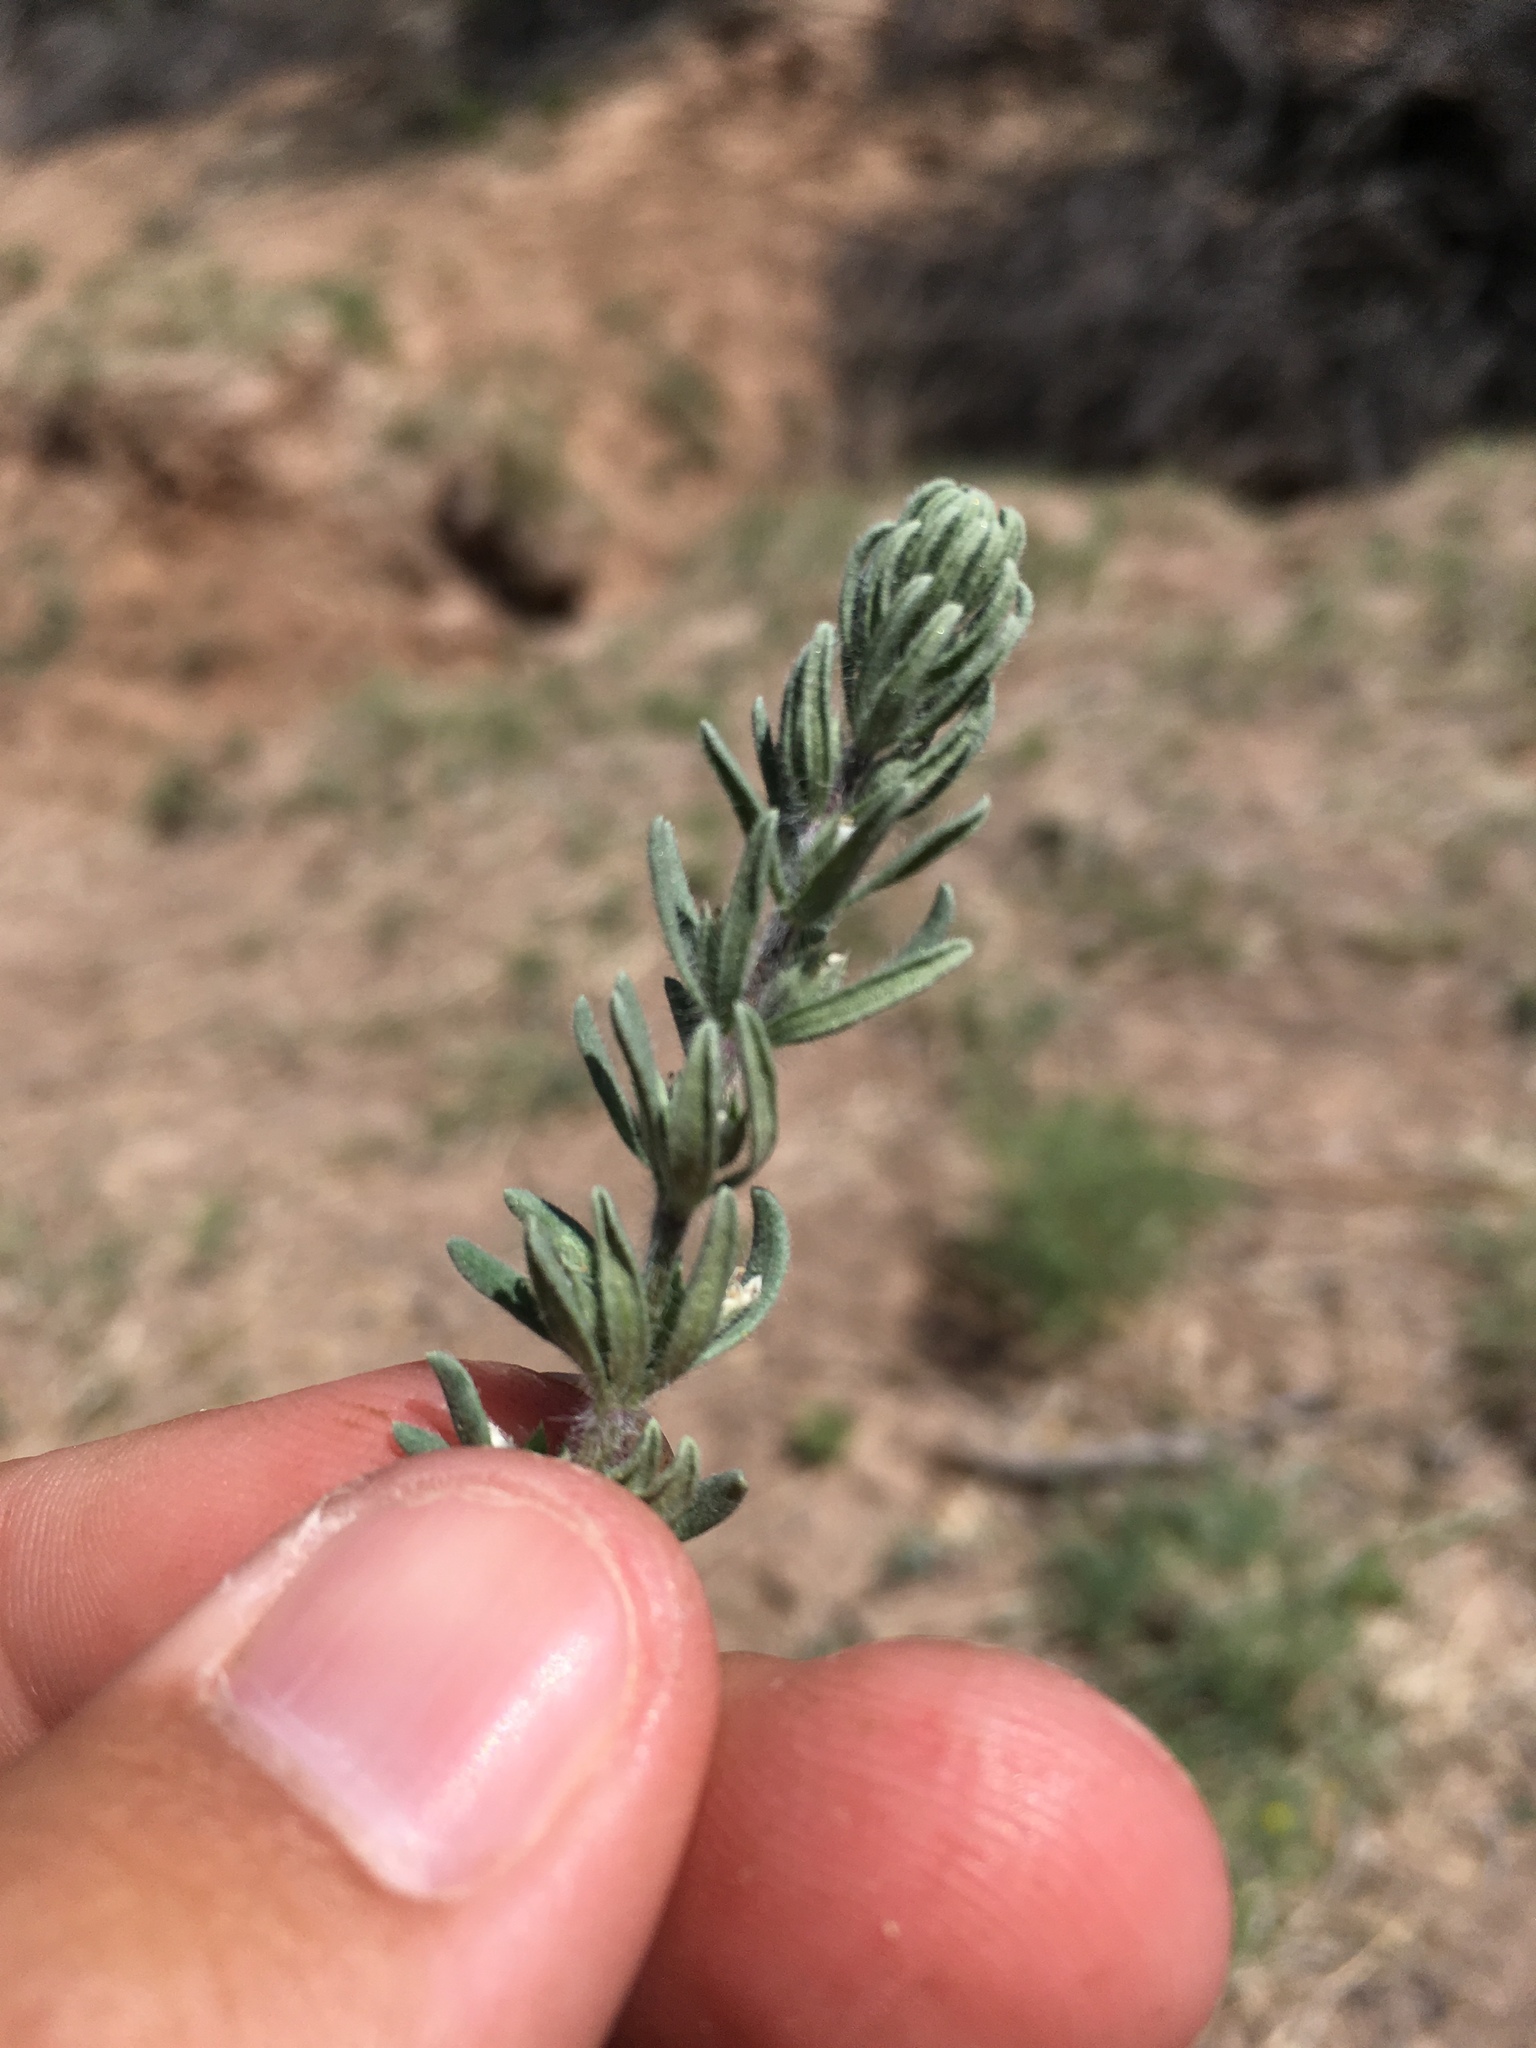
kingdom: Plantae
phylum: Tracheophyta
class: Magnoliopsida
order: Lamiales
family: Lamiaceae
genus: Teucrium
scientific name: Teucrium depressum
